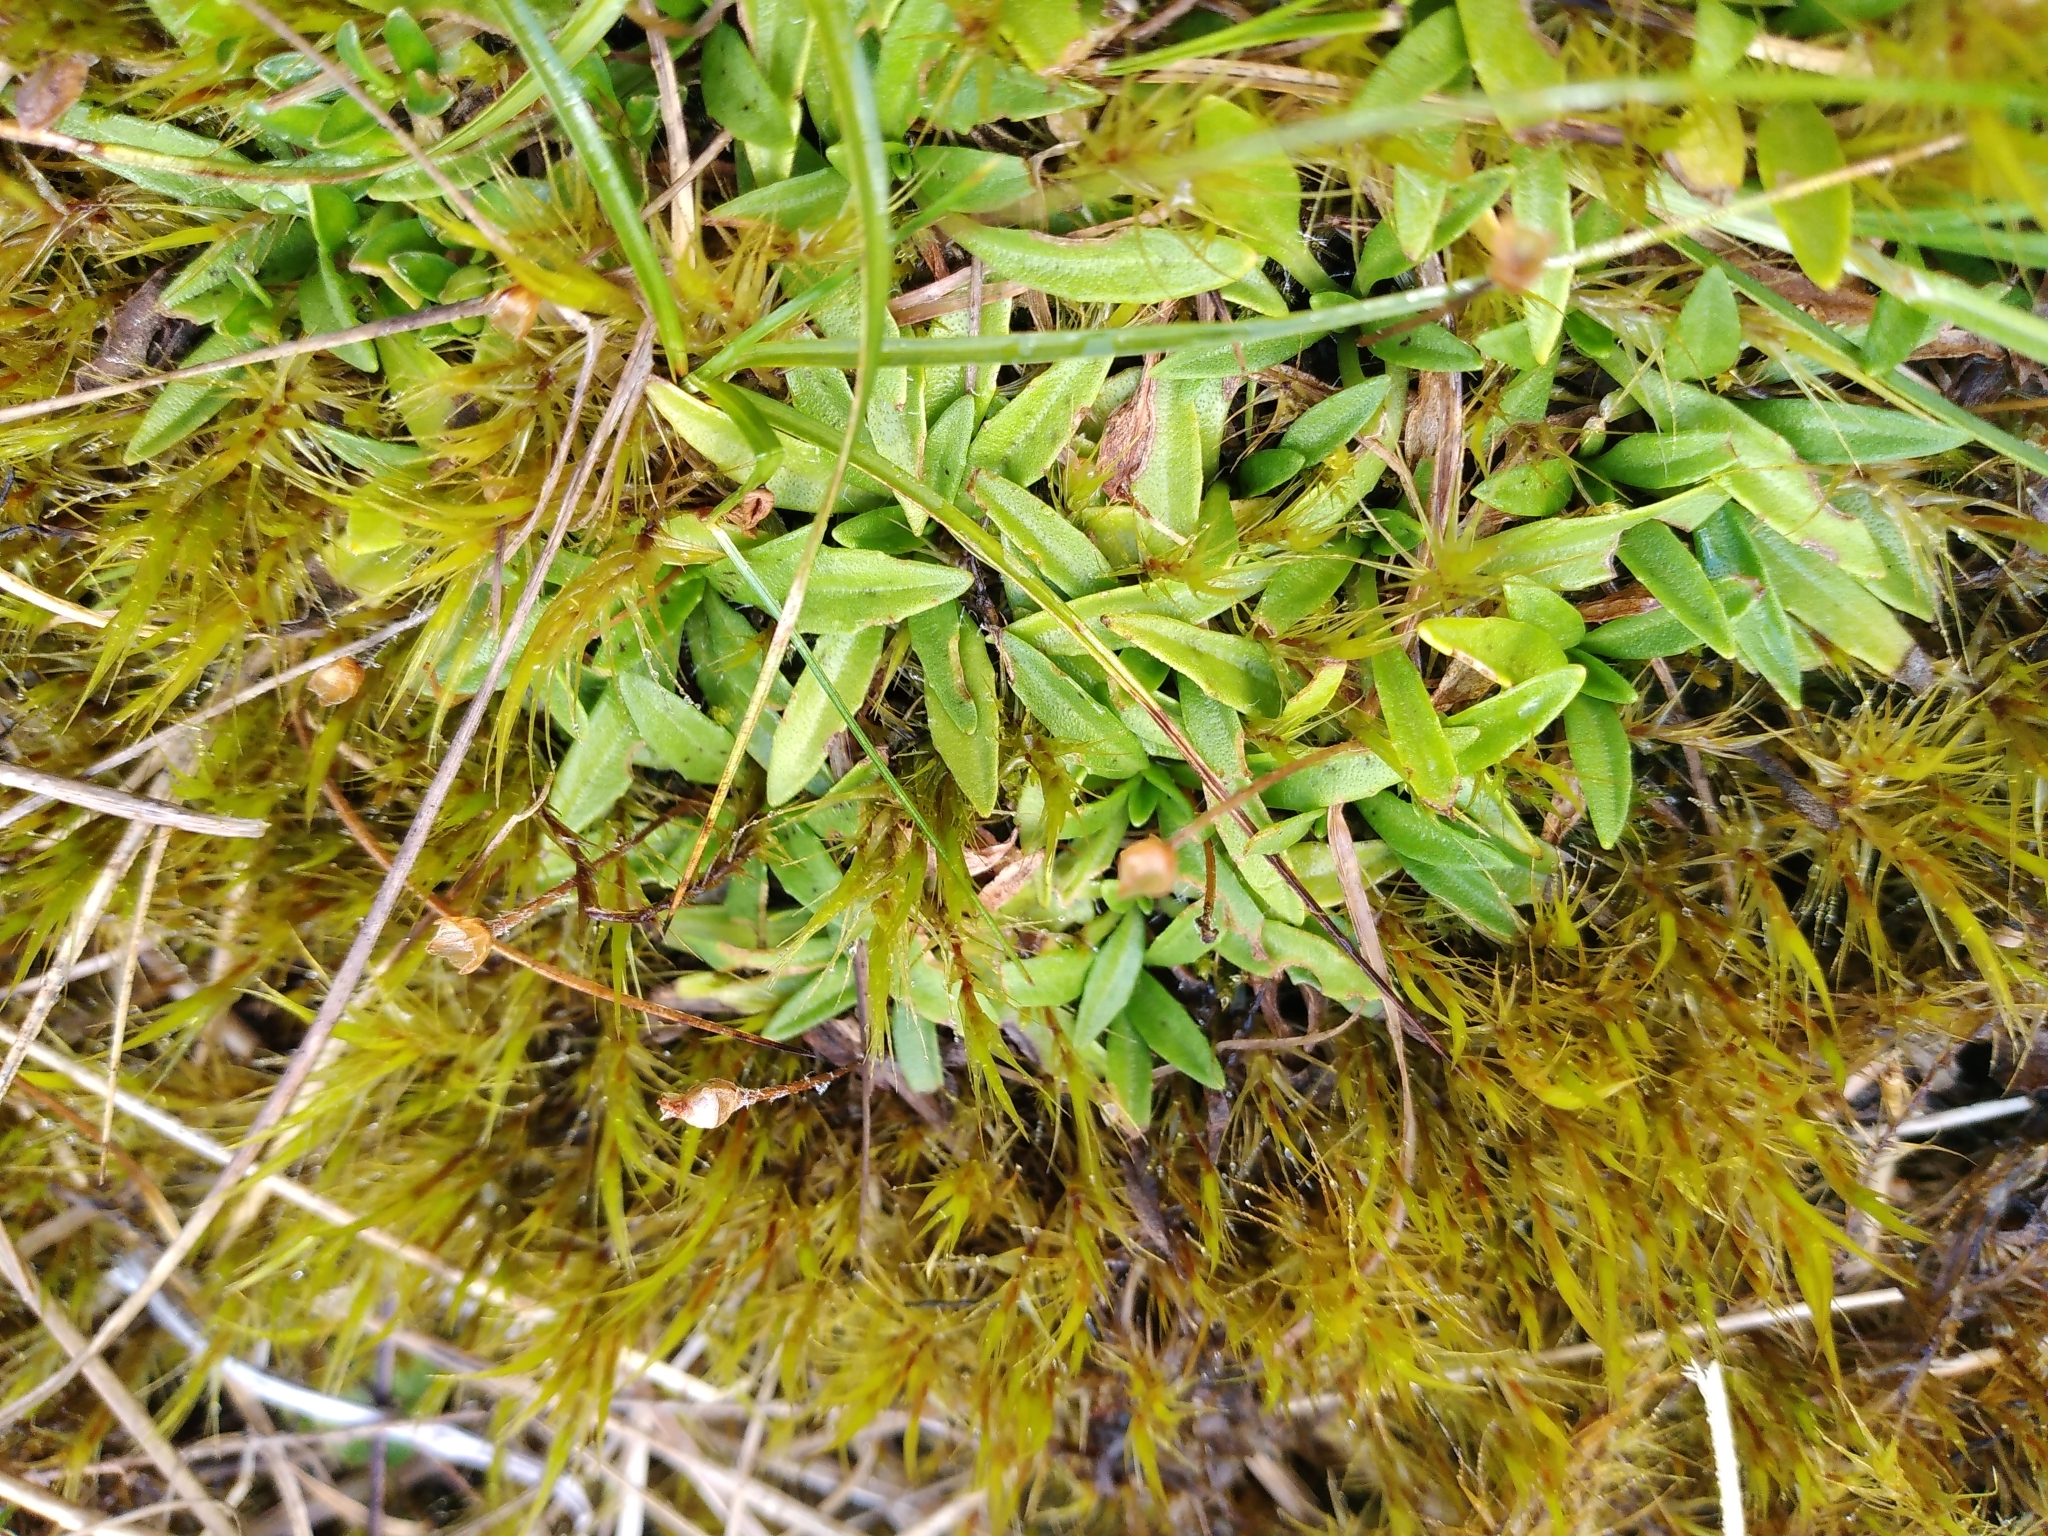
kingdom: Plantae
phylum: Tracheophyta
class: Magnoliopsida
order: Lamiales
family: Plantaginaceae
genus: Plantago
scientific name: Plantago unibracteata
